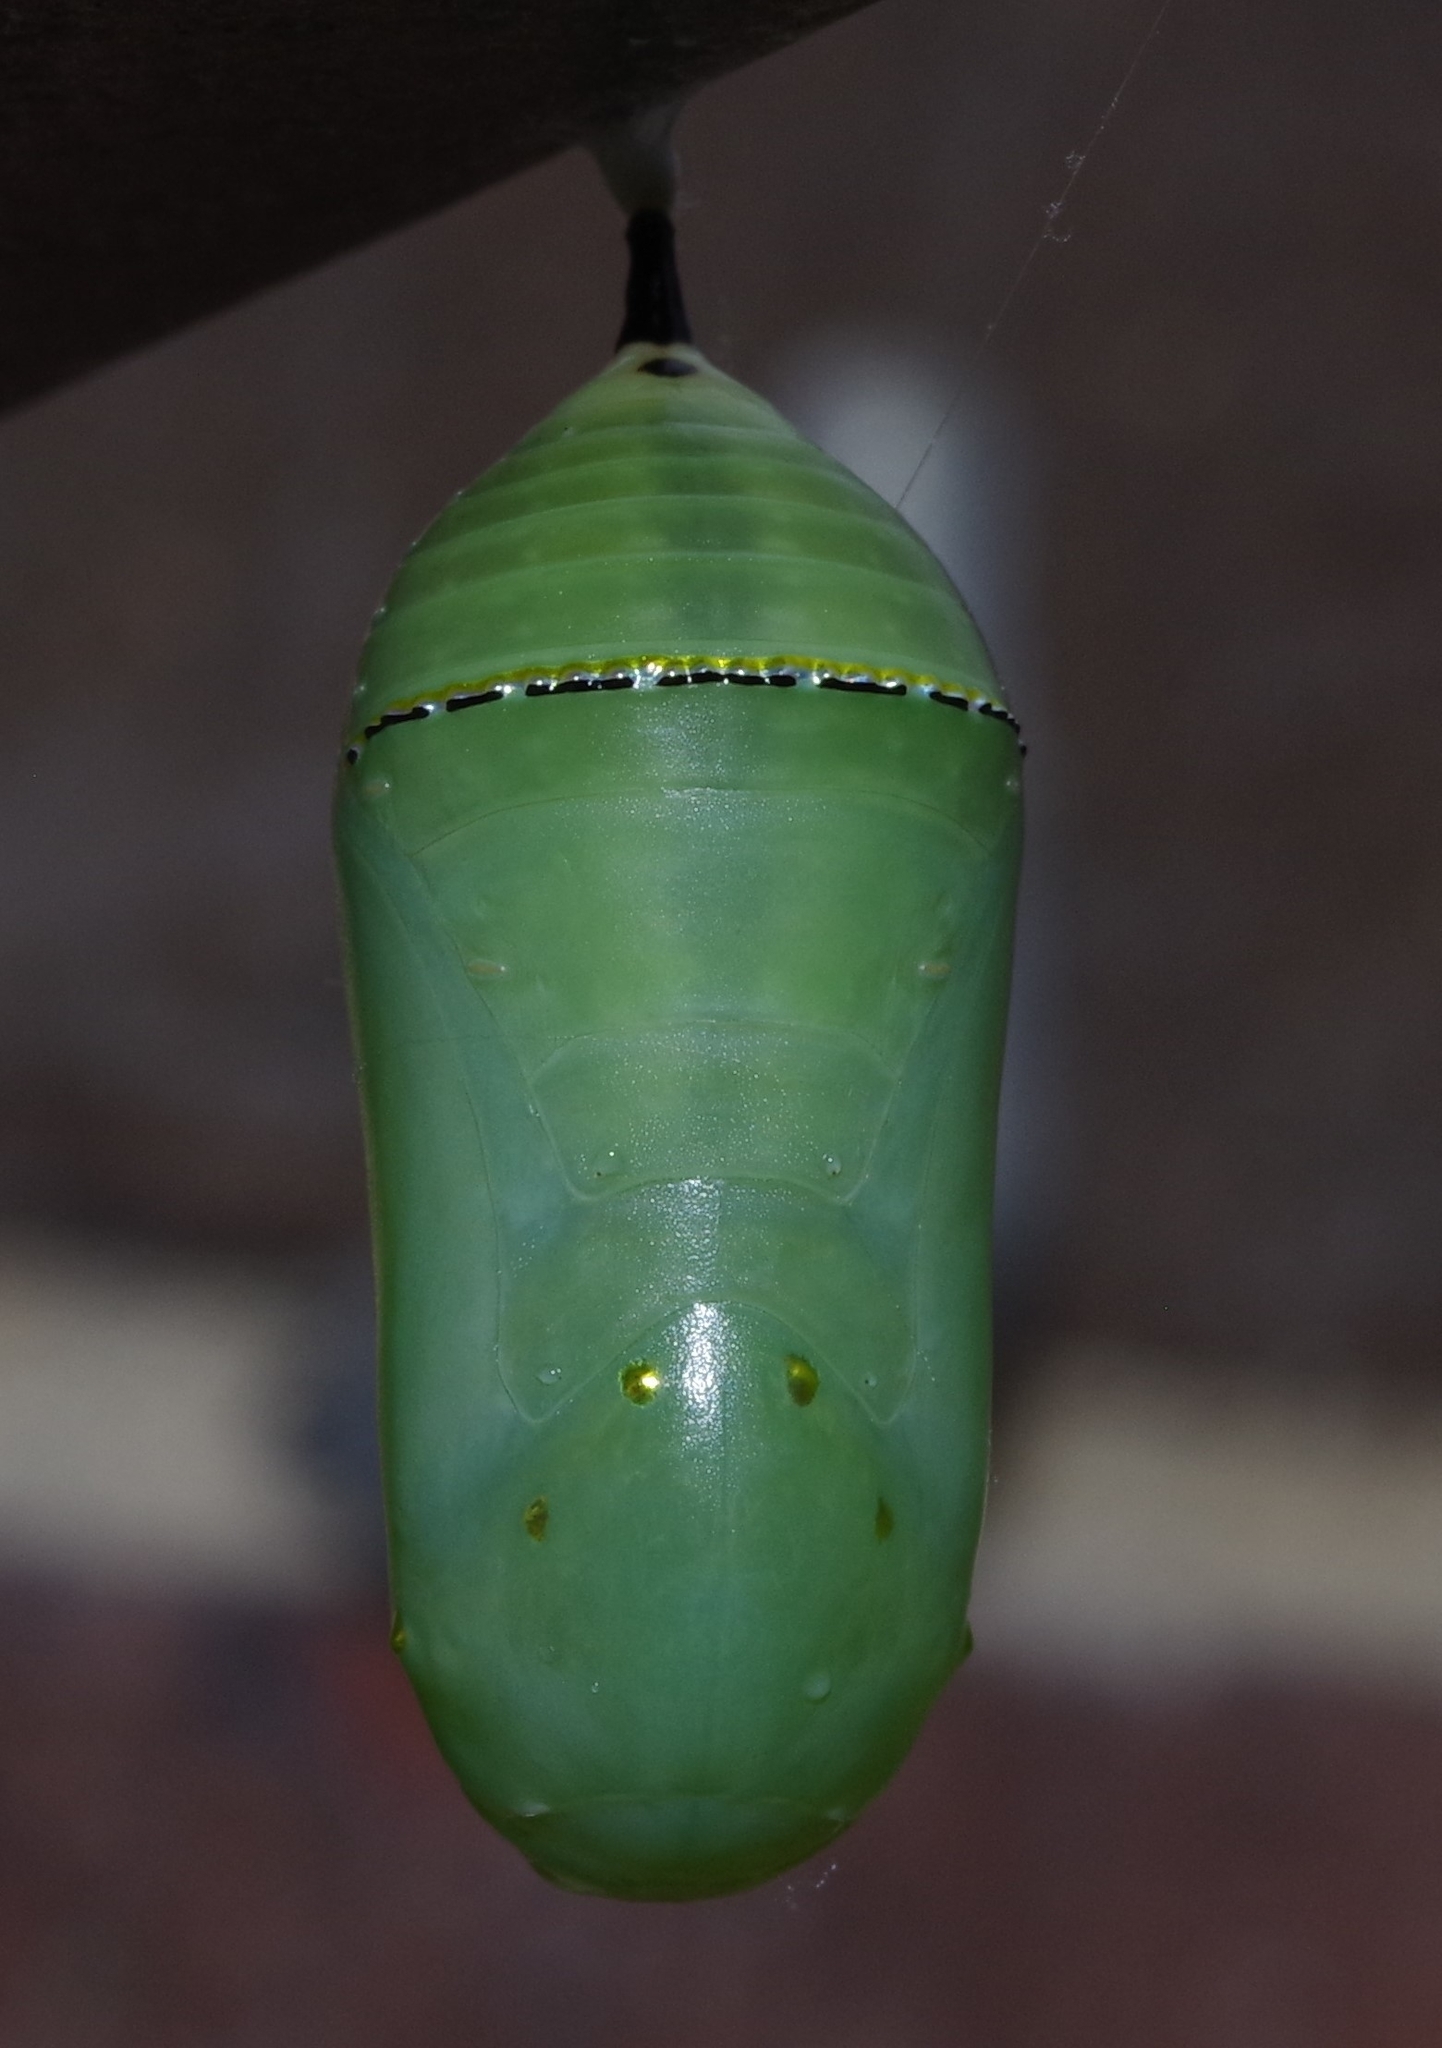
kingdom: Animalia
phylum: Arthropoda
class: Insecta
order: Lepidoptera
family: Nymphalidae
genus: Danaus
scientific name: Danaus plexippus
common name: Monarch
